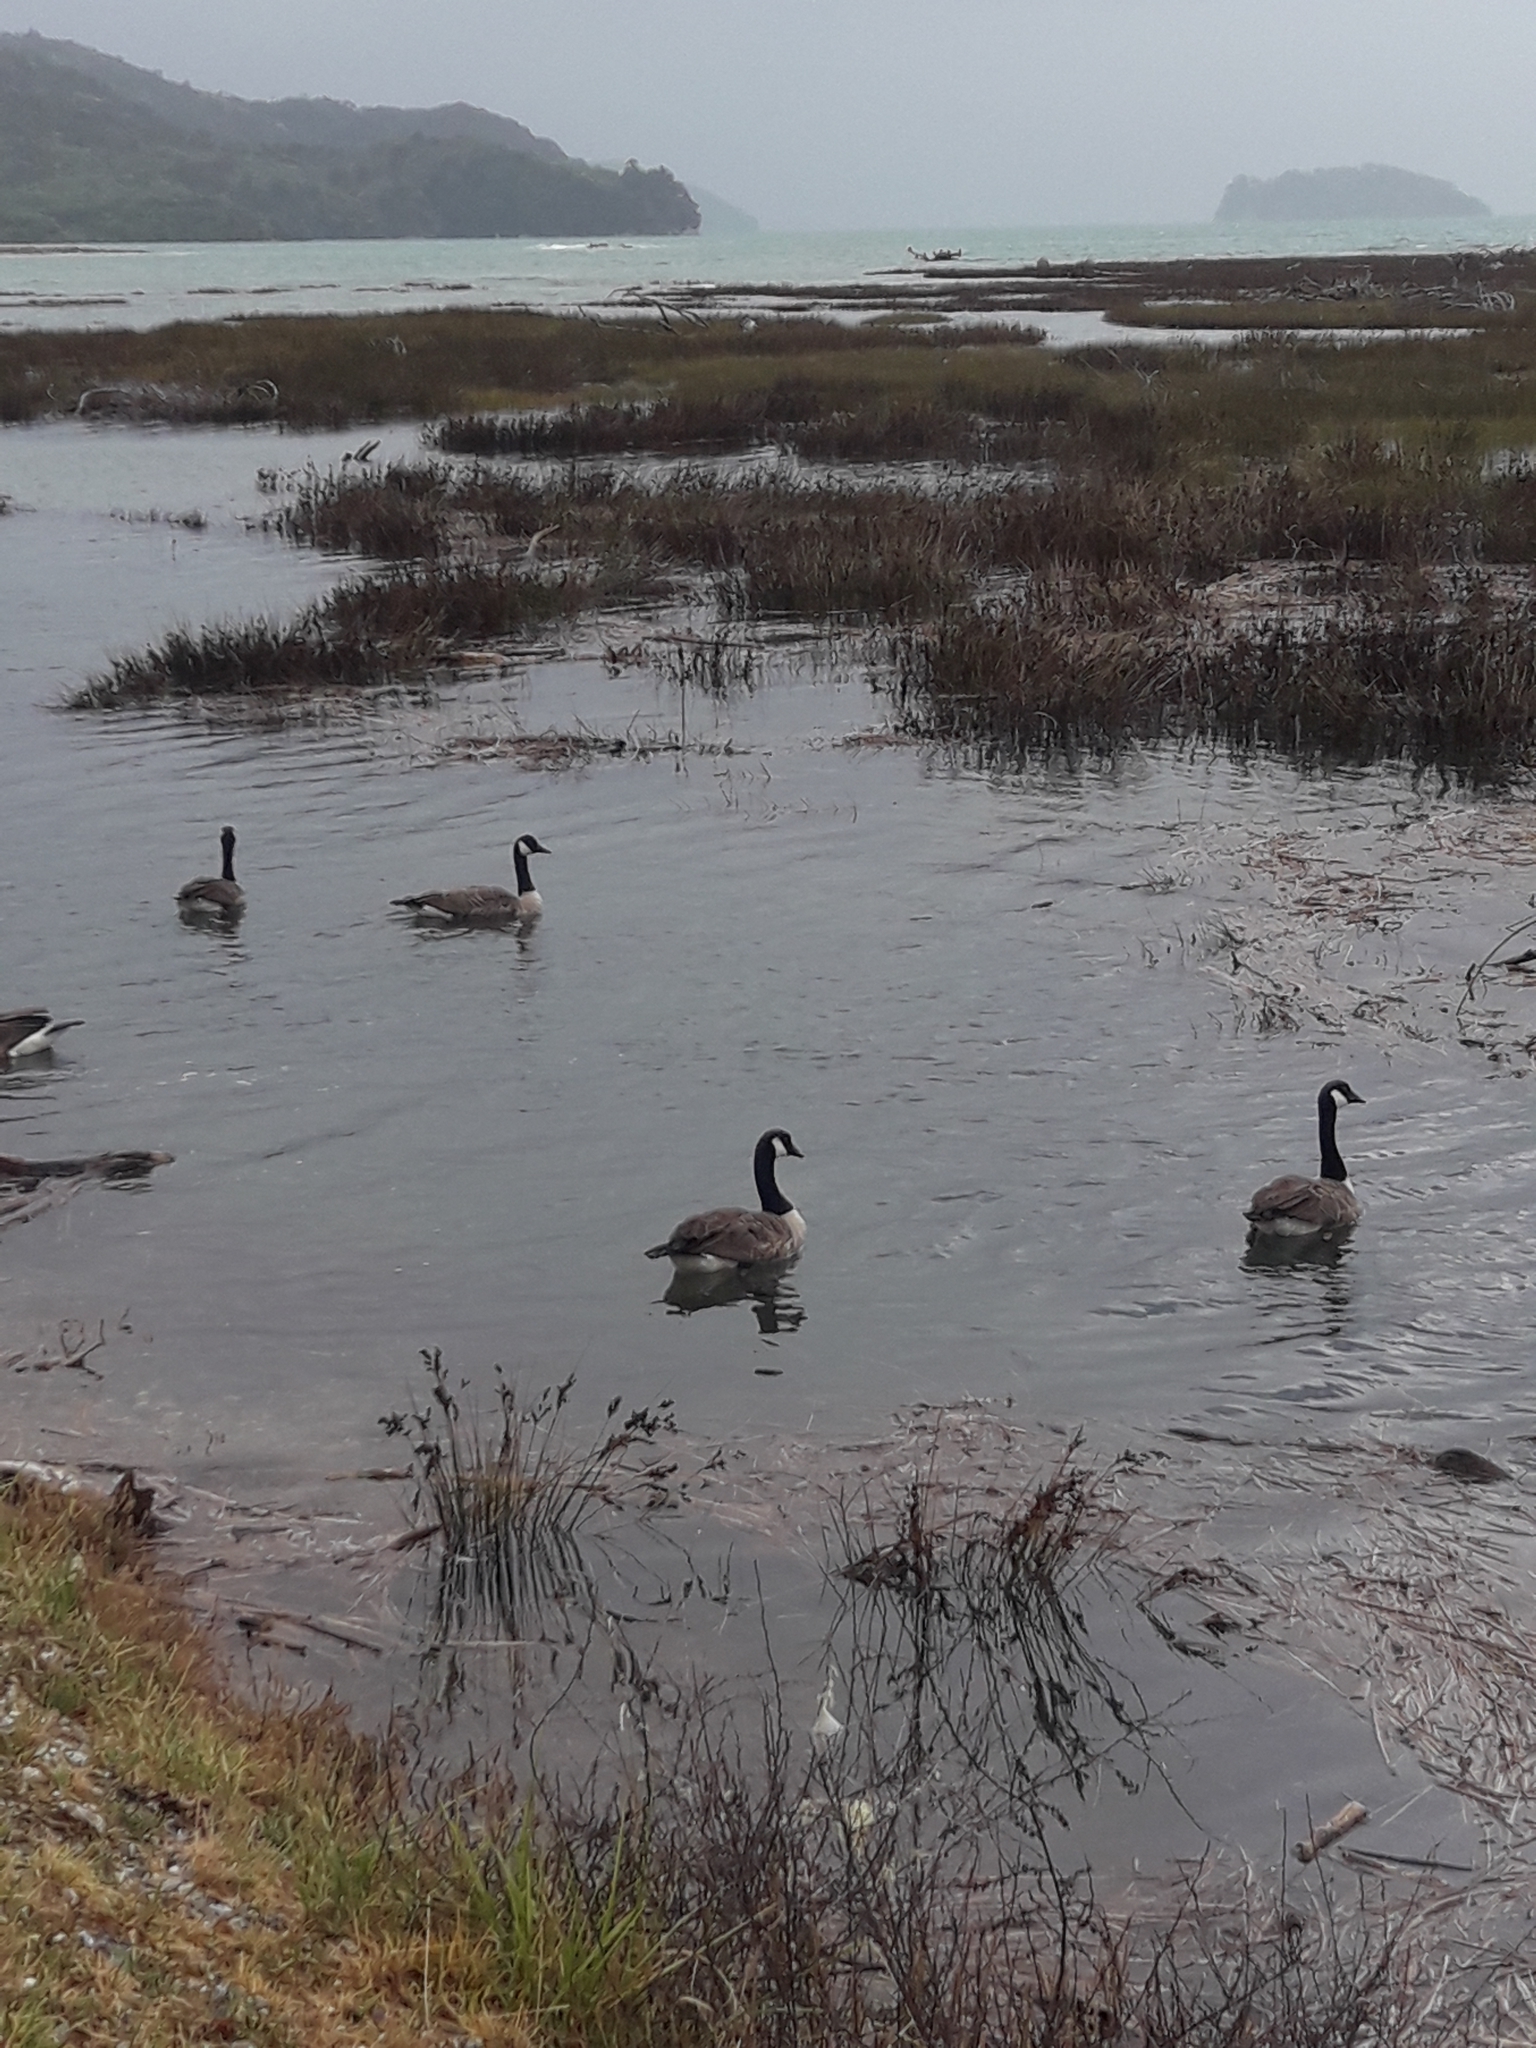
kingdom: Animalia
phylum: Chordata
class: Aves
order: Anseriformes
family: Anatidae
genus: Branta
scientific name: Branta canadensis
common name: Canada goose
